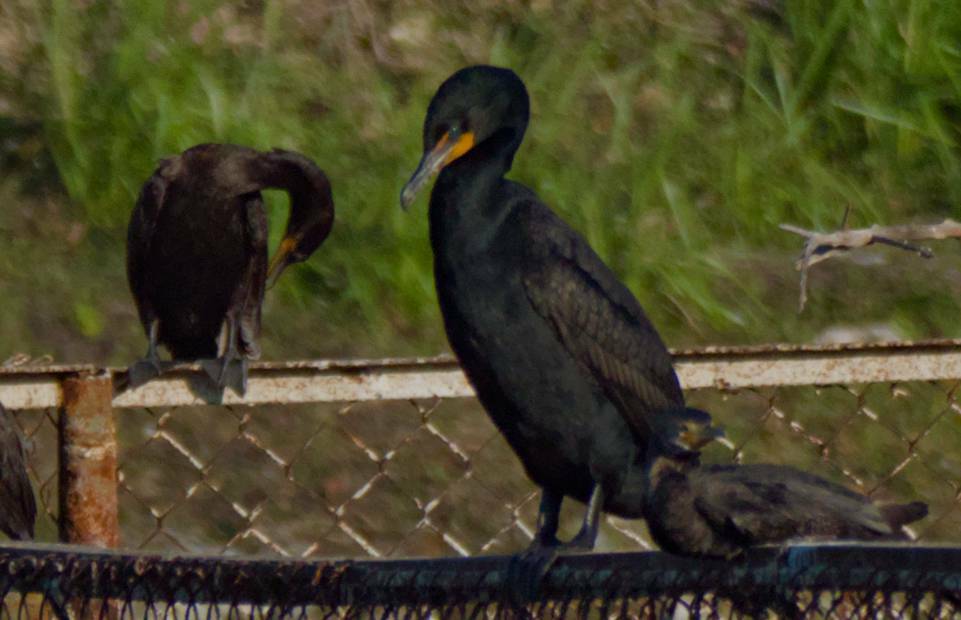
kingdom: Animalia
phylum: Chordata
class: Aves
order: Suliformes
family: Phalacrocoracidae
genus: Phalacrocorax
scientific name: Phalacrocorax auritus
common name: Double-crested cormorant
